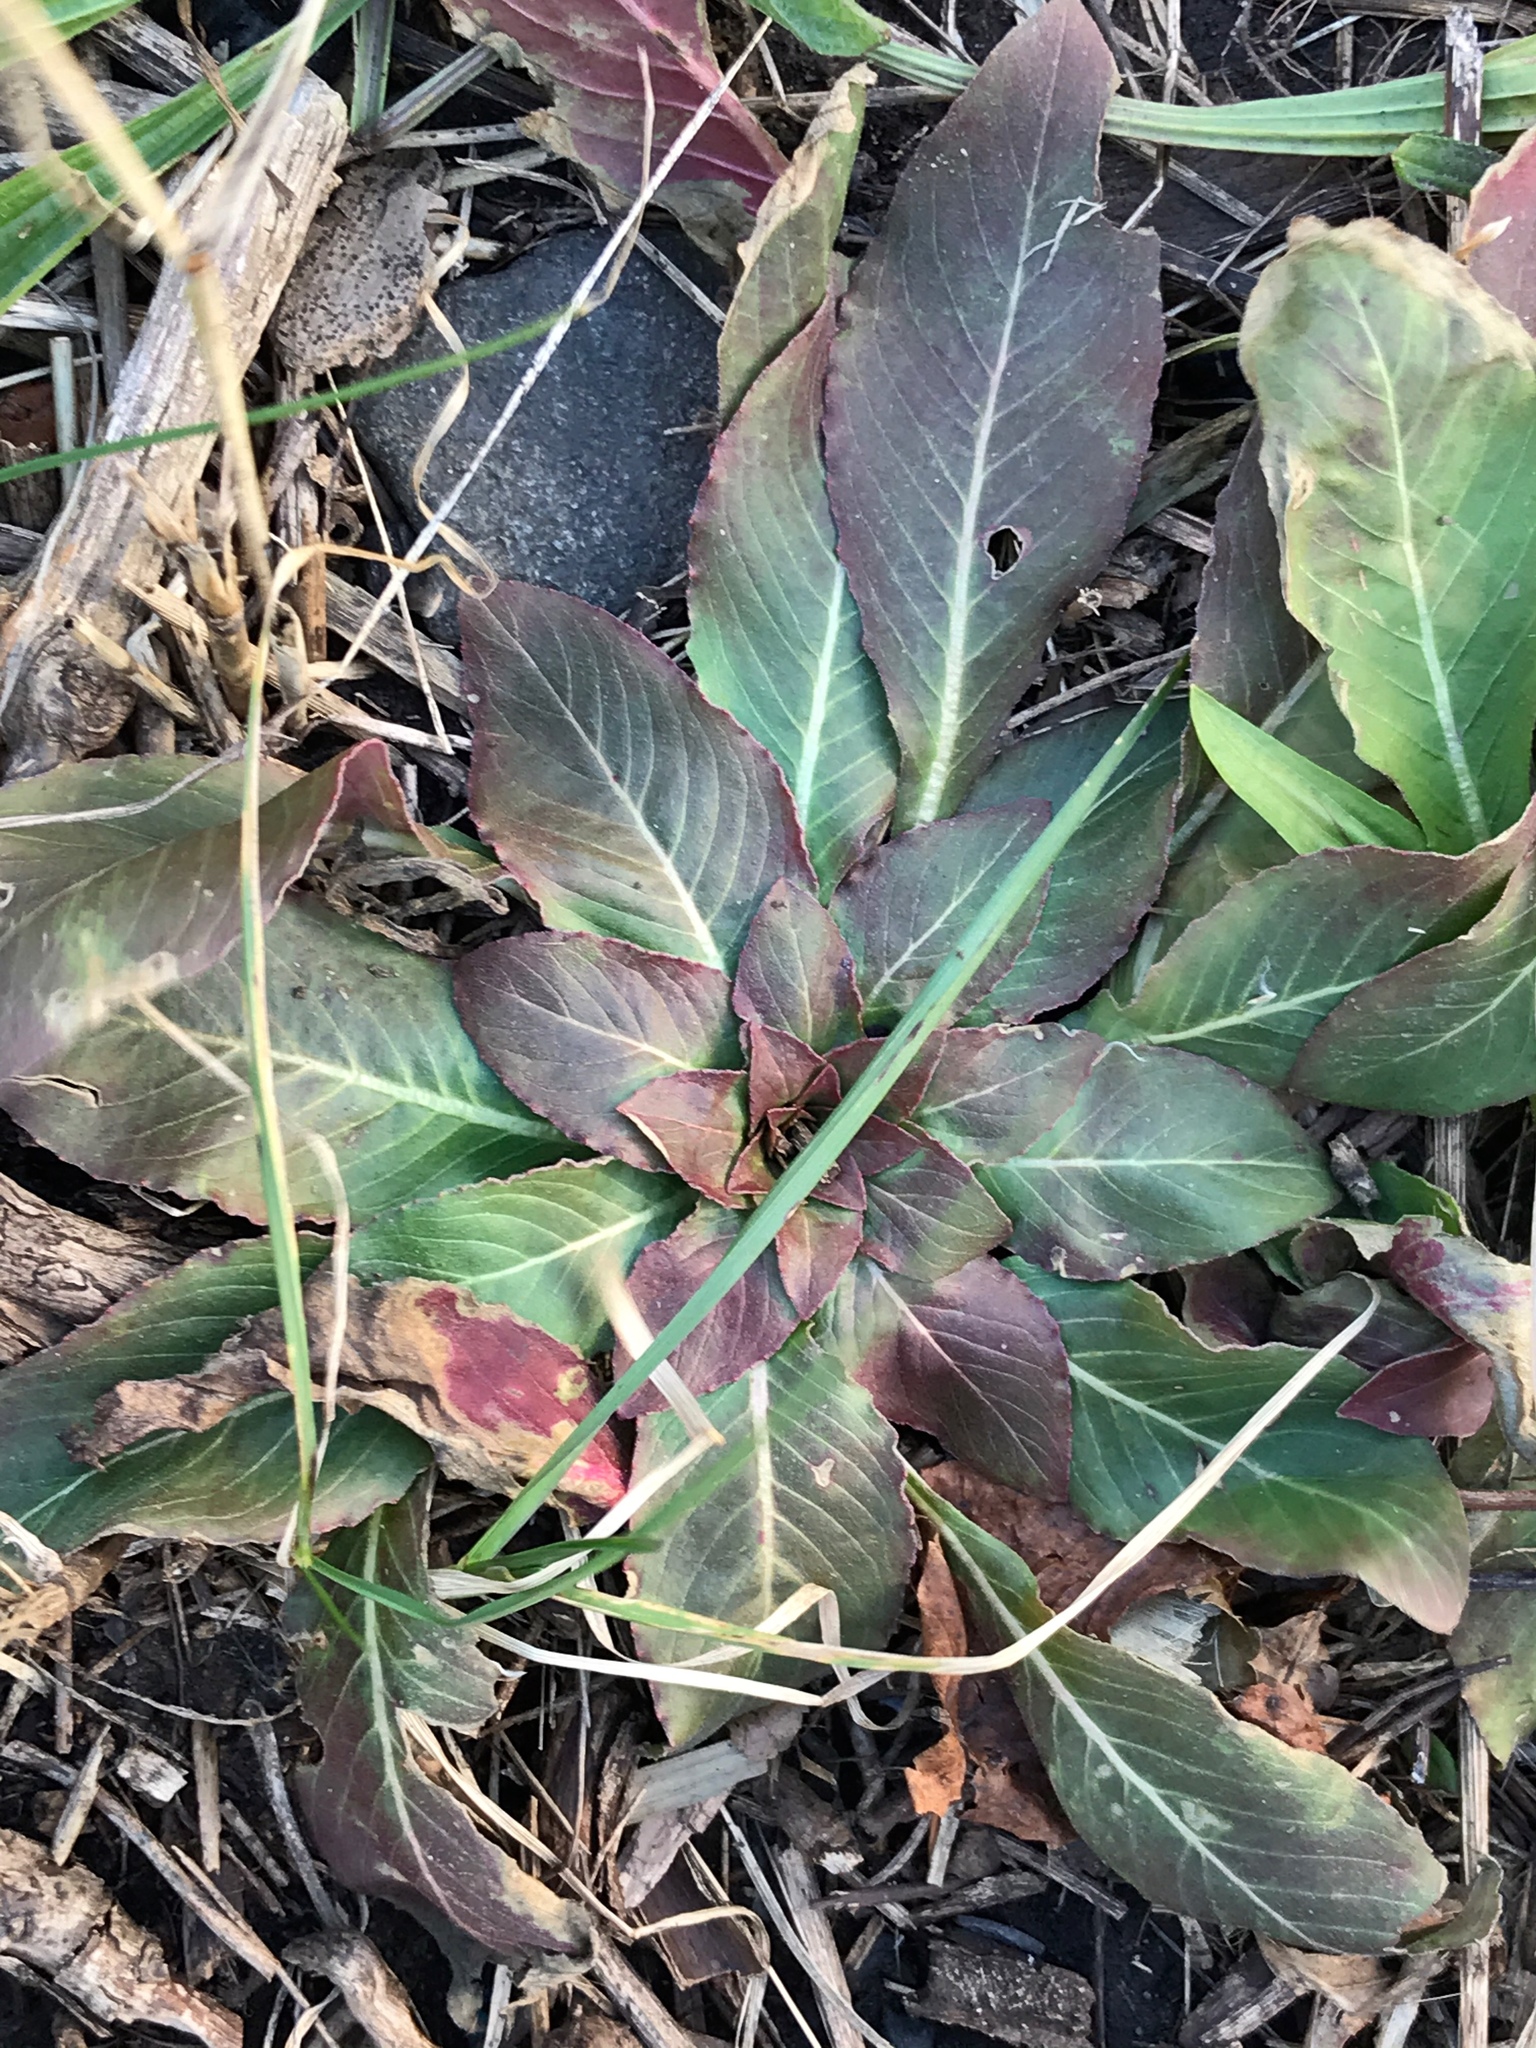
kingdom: Plantae
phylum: Tracheophyta
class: Magnoliopsida
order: Myrtales
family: Onagraceae
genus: Oenothera
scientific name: Oenothera biennis
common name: Common evening-primrose
